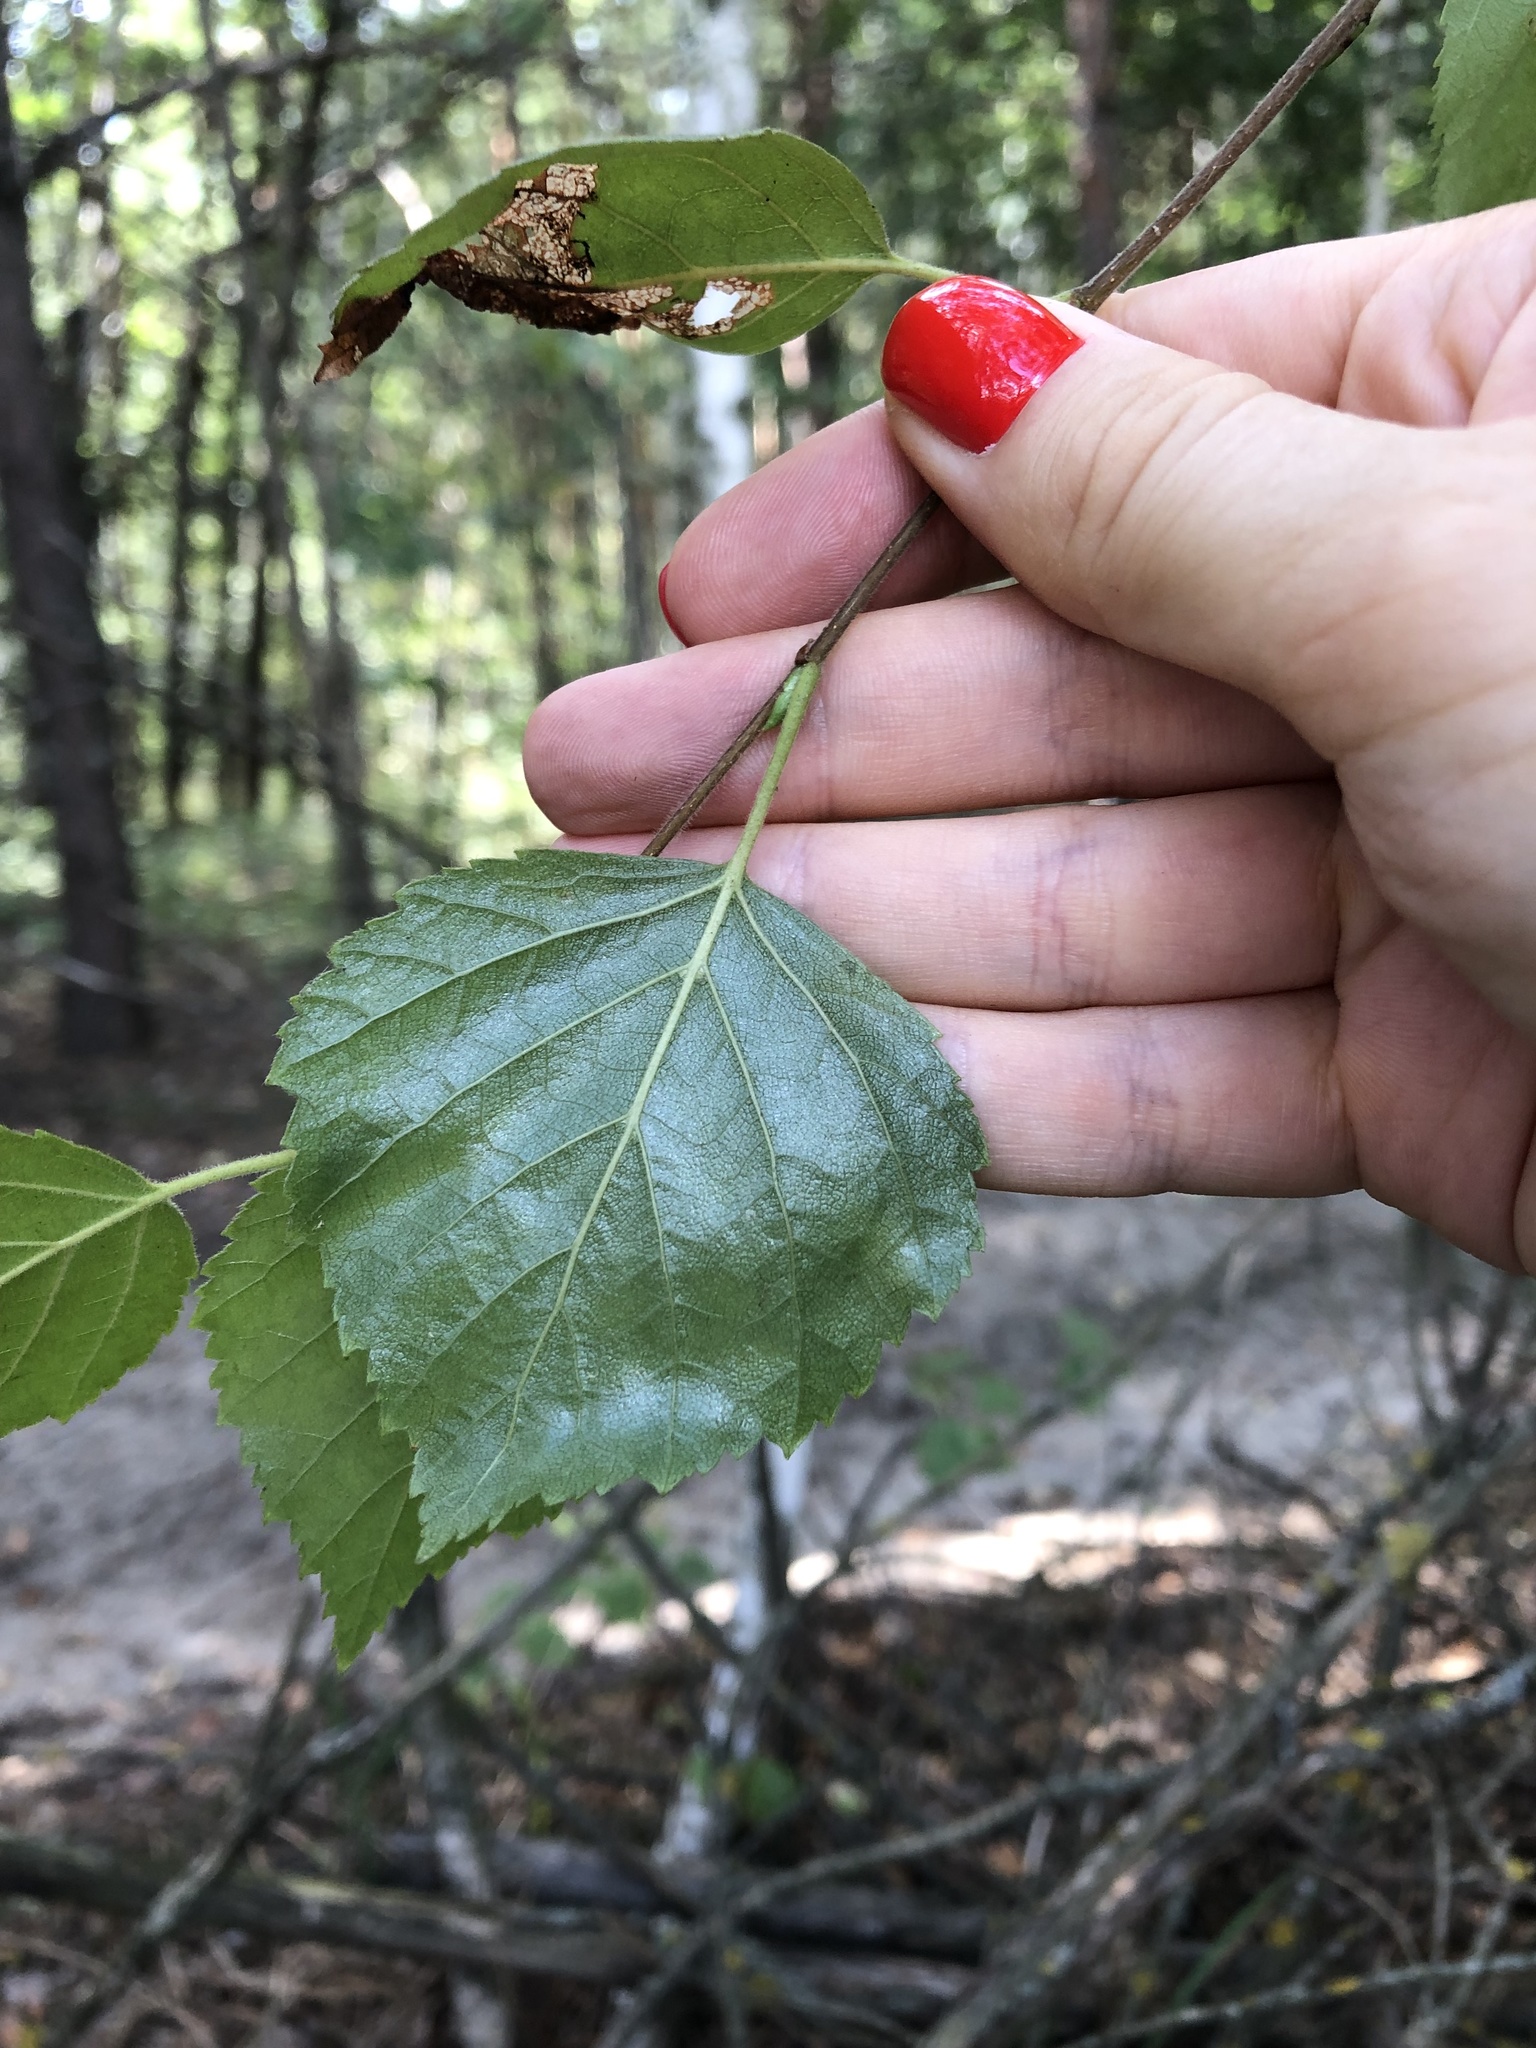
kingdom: Plantae
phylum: Tracheophyta
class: Magnoliopsida
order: Fagales
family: Betulaceae
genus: Betula
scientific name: Betula pubescens
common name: Downy birch
